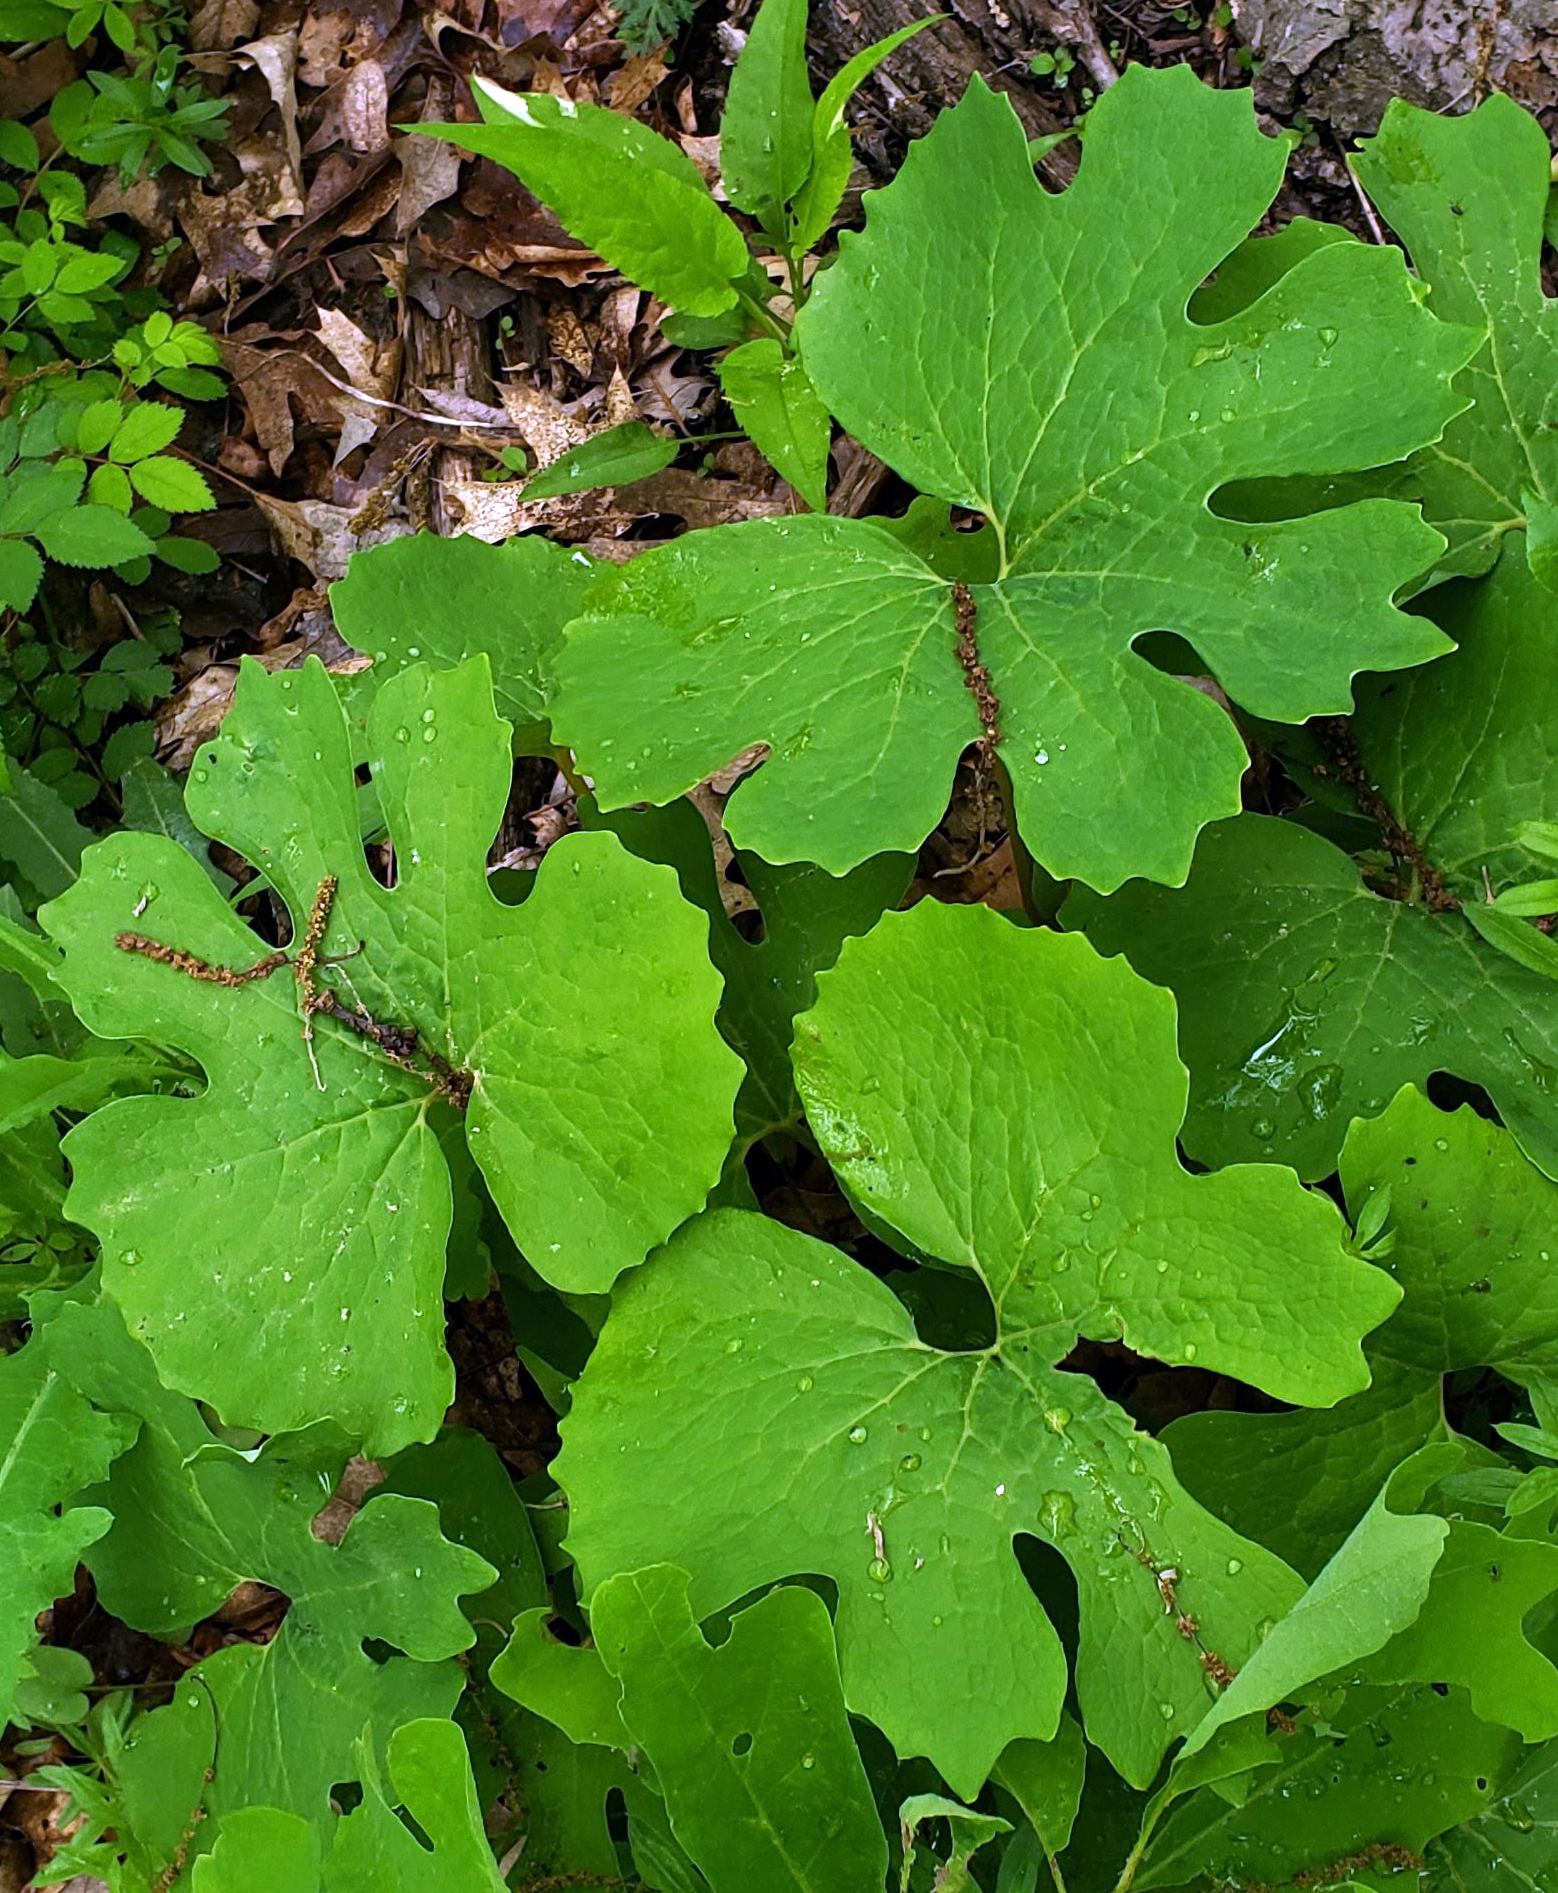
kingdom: Plantae
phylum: Tracheophyta
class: Magnoliopsida
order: Ranunculales
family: Papaveraceae
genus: Sanguinaria
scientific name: Sanguinaria canadensis
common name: Bloodroot
